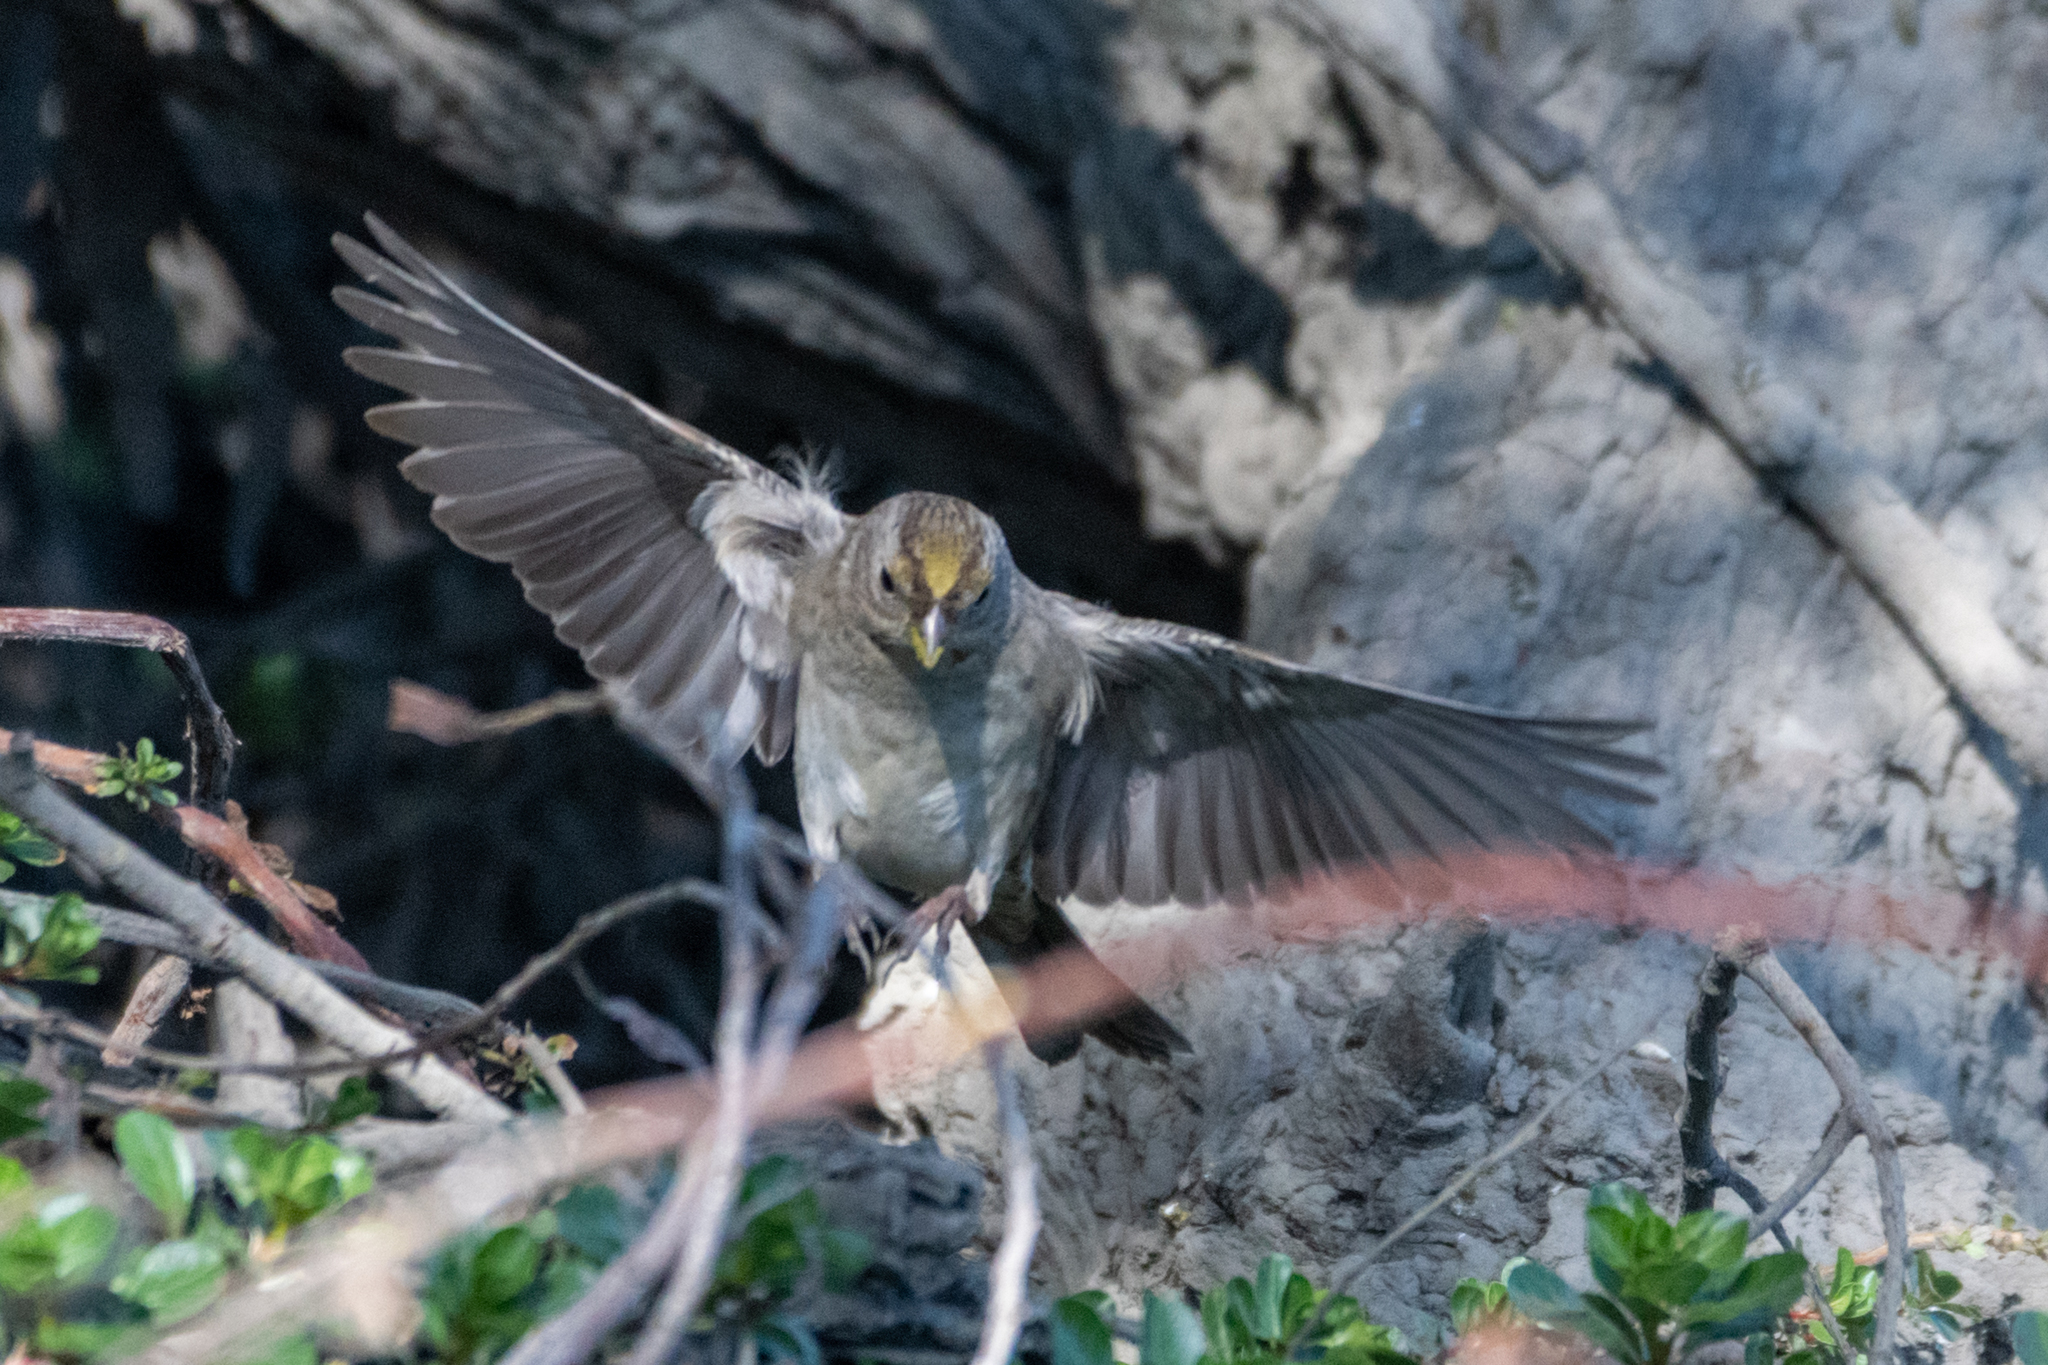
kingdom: Animalia
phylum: Chordata
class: Aves
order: Passeriformes
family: Passerellidae
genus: Zonotrichia
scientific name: Zonotrichia atricapilla
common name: Golden-crowned sparrow
